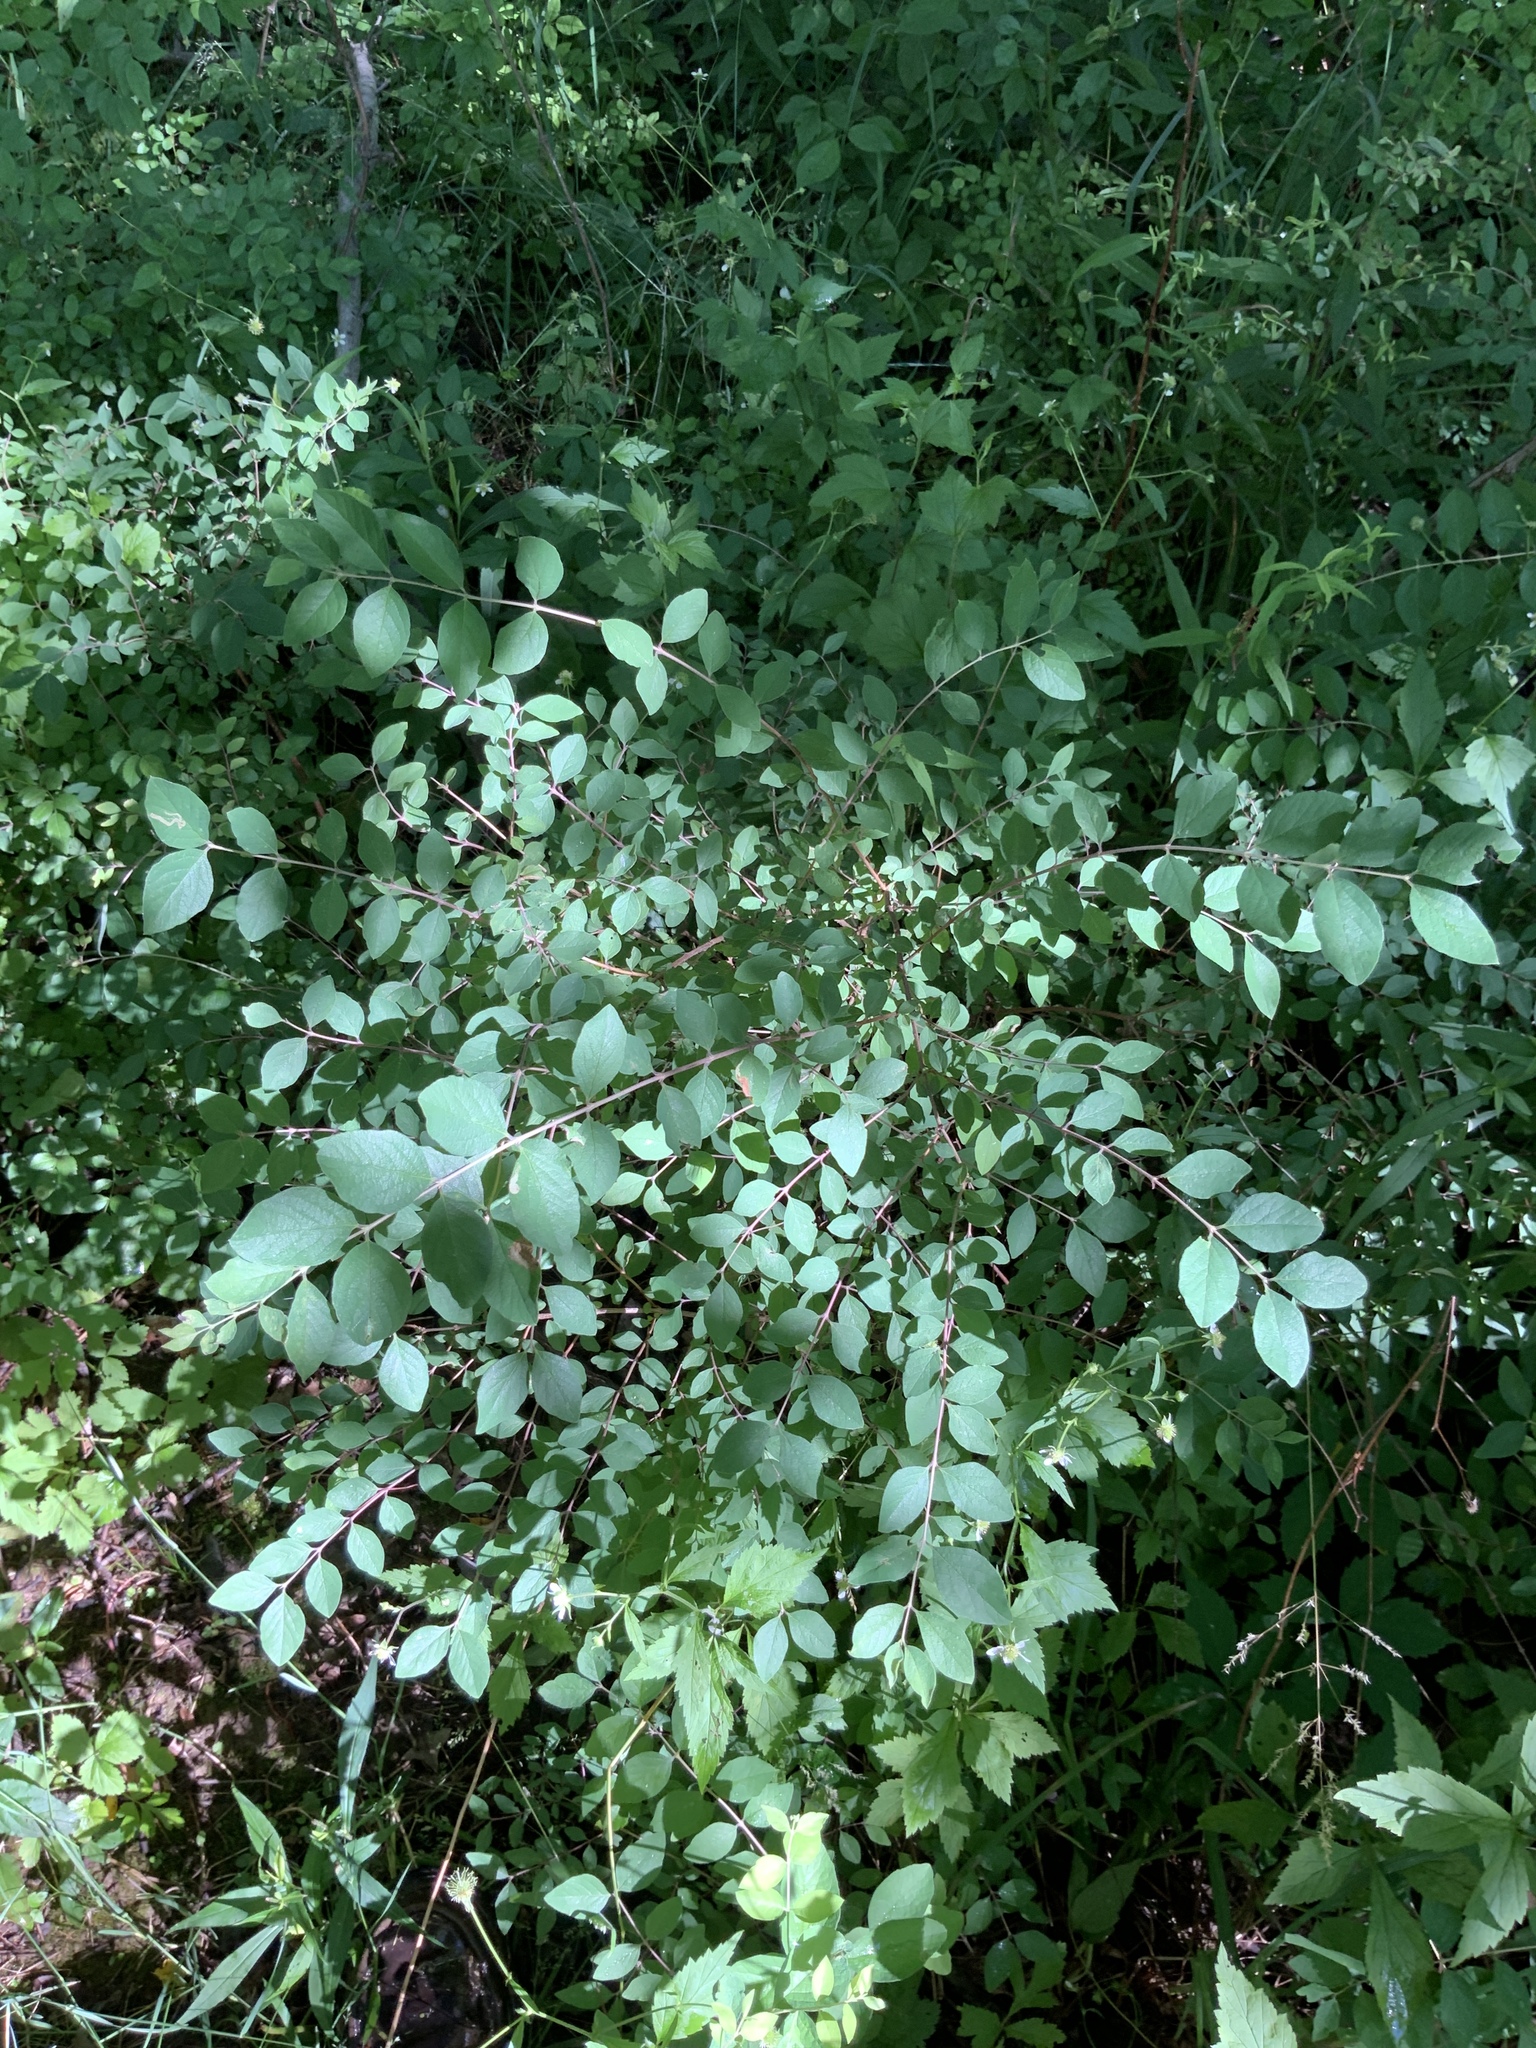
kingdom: Plantae
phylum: Tracheophyta
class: Magnoliopsida
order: Dipsacales
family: Caprifoliaceae
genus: Symphoricarpos
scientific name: Symphoricarpos orbiculatus
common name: Coralberry
